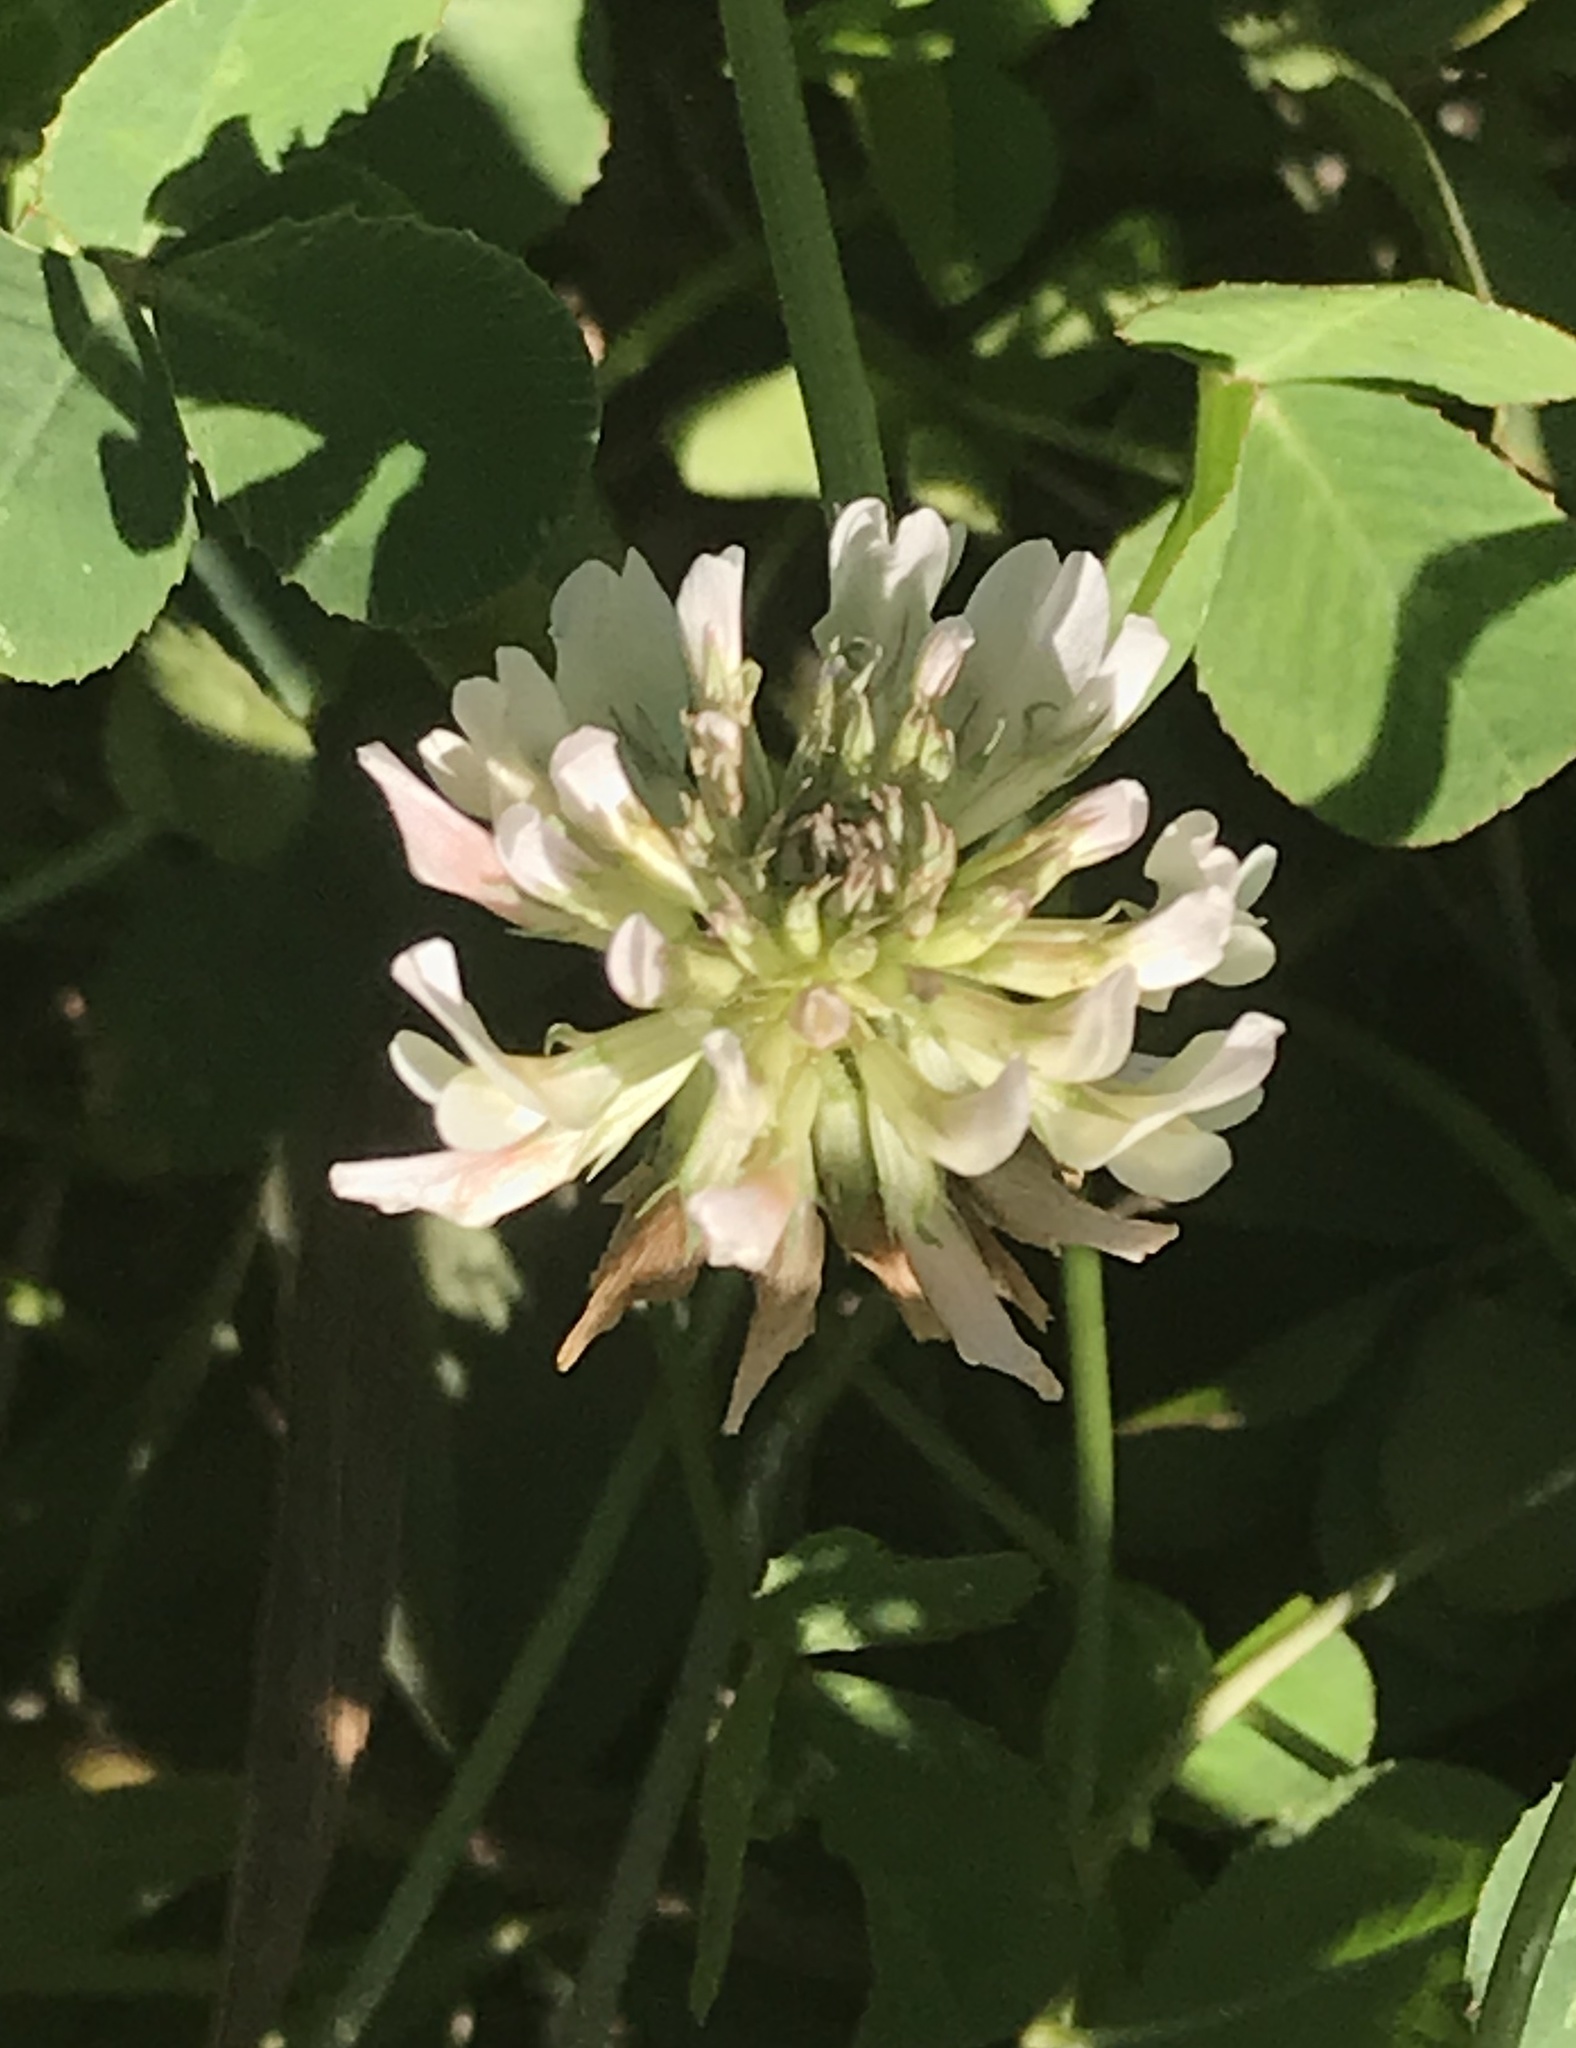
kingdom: Plantae
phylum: Tracheophyta
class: Magnoliopsida
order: Fabales
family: Fabaceae
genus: Trifolium
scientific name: Trifolium repens
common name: White clover
